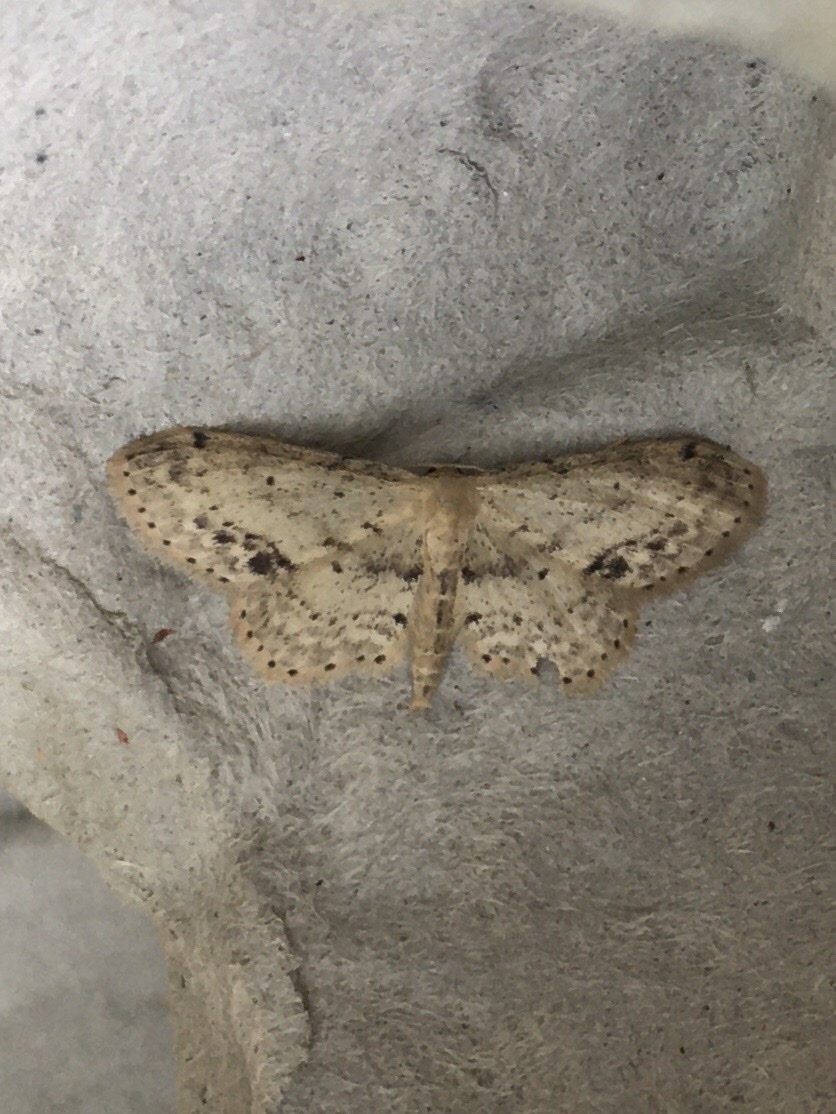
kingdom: Animalia
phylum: Arthropoda
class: Insecta
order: Lepidoptera
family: Geometridae
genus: Idaea
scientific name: Idaea dimidiata
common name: Single-dotted wave
